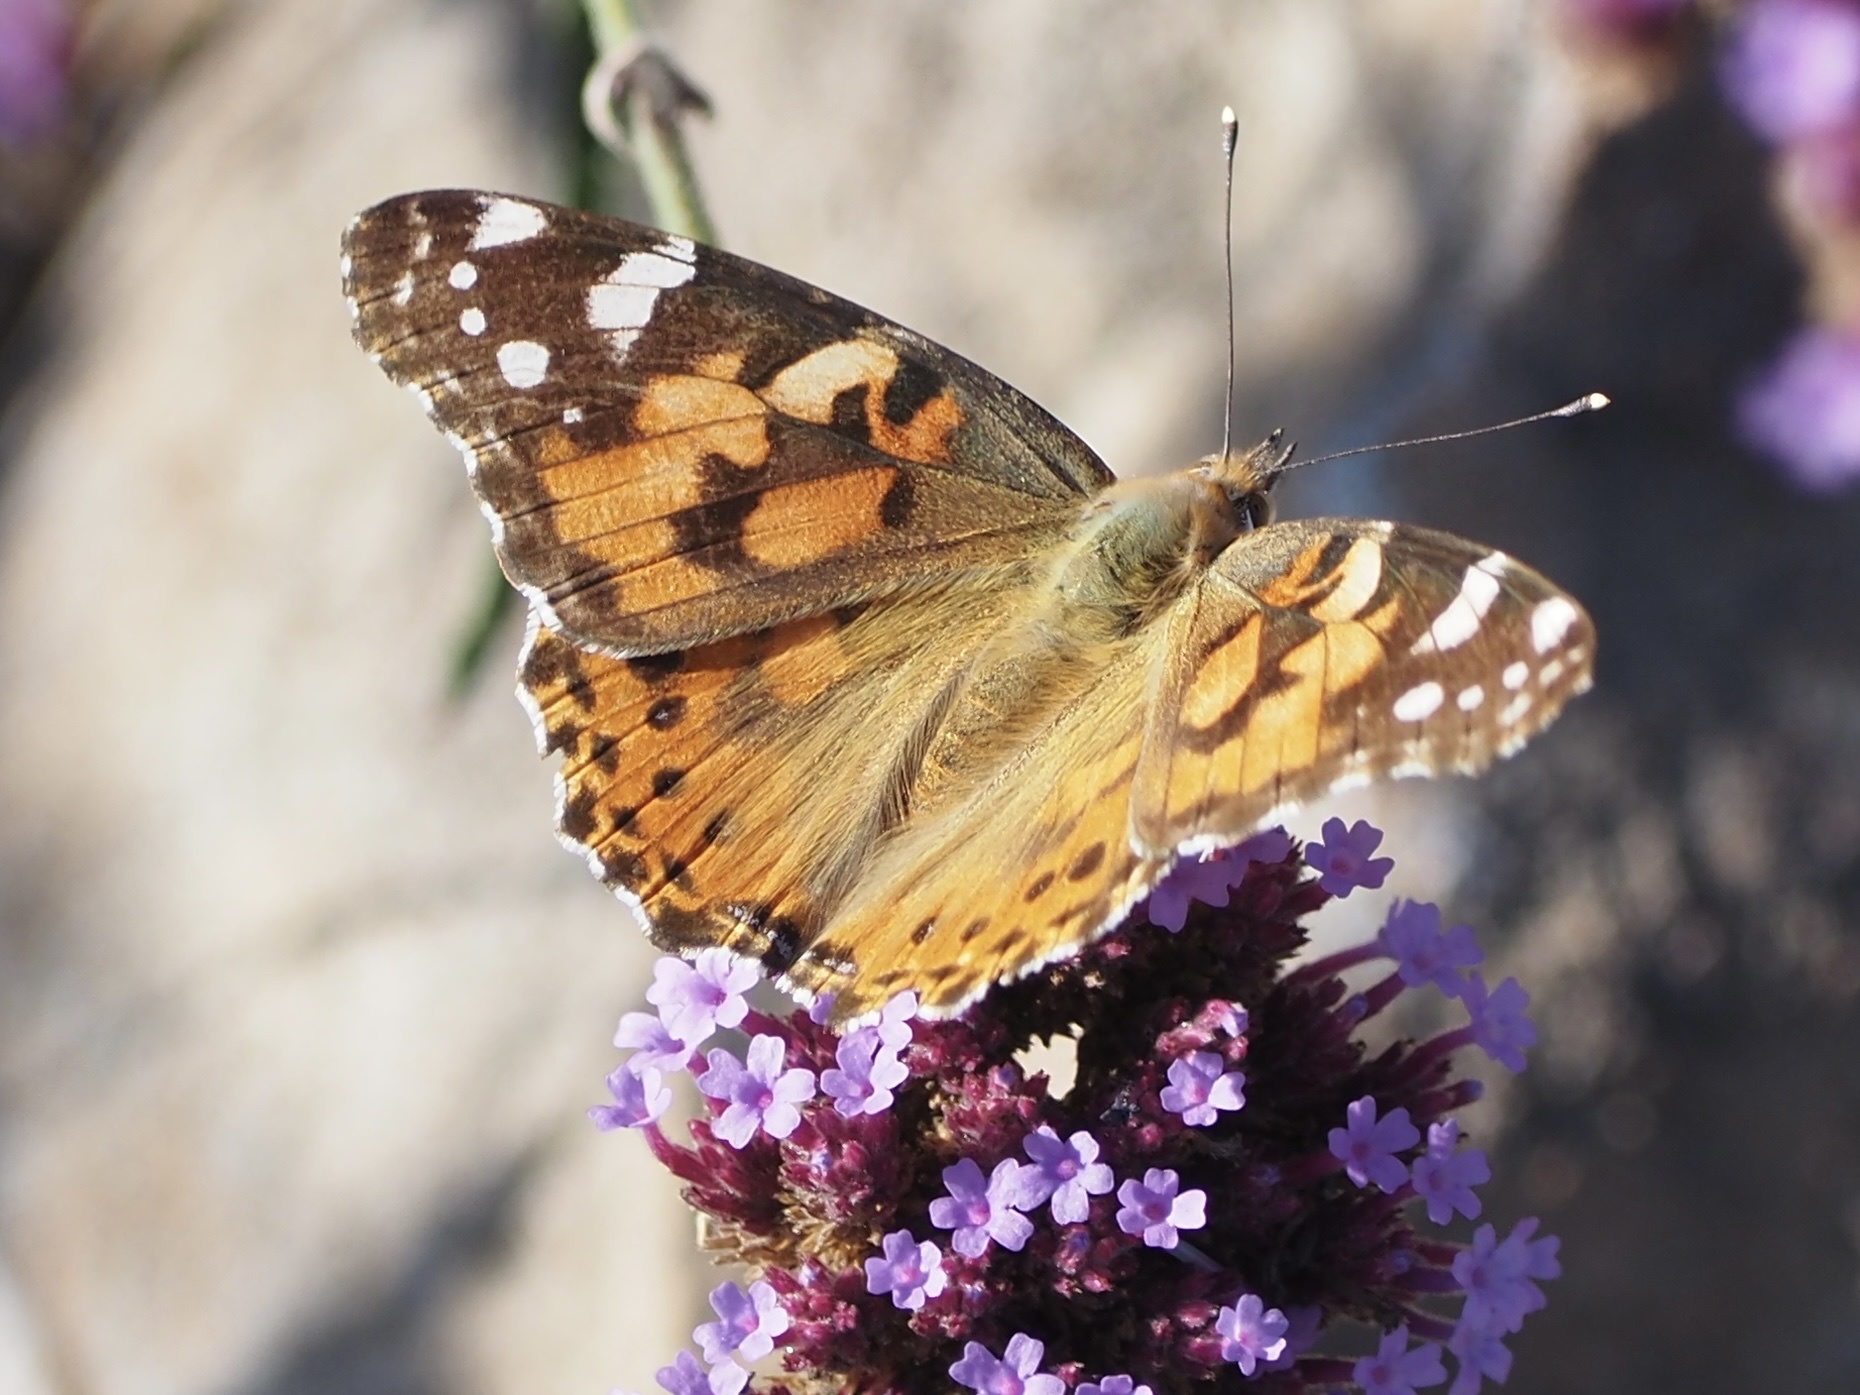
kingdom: Animalia
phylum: Arthropoda
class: Insecta
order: Lepidoptera
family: Nymphalidae
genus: Vanessa
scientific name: Vanessa cardui
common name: Painted lady
